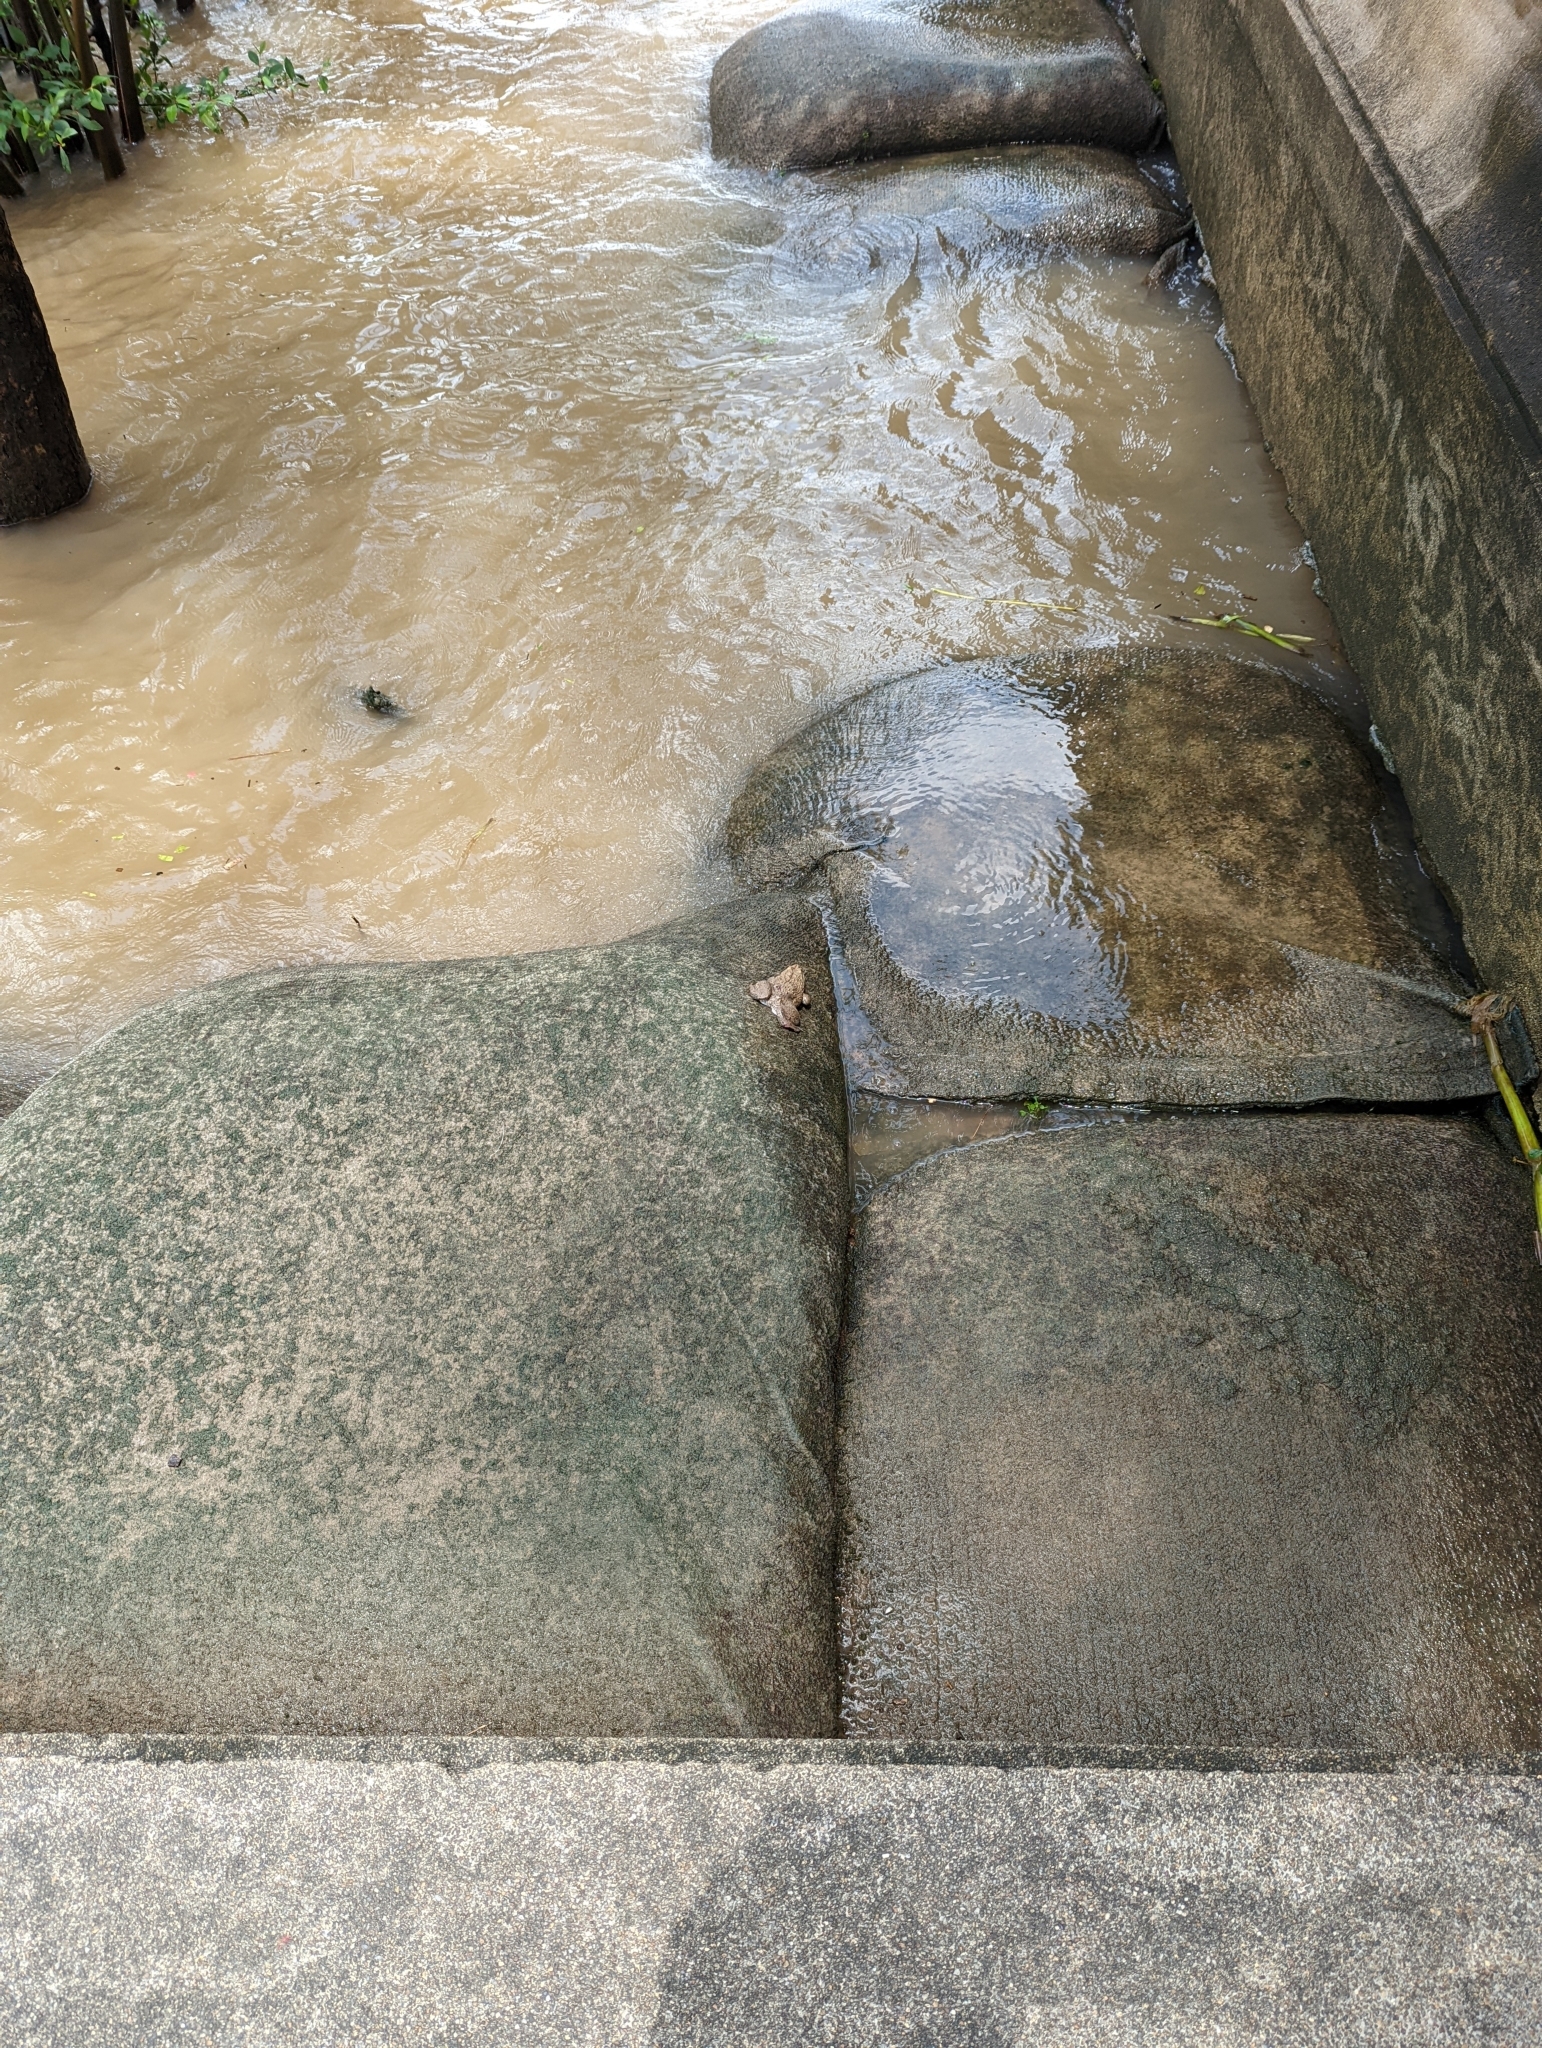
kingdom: Animalia
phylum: Chordata
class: Amphibia
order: Anura
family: Dicroglossidae
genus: Hoplobatrachus
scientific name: Hoplobatrachus rugulosus
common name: Chinese edible frog
